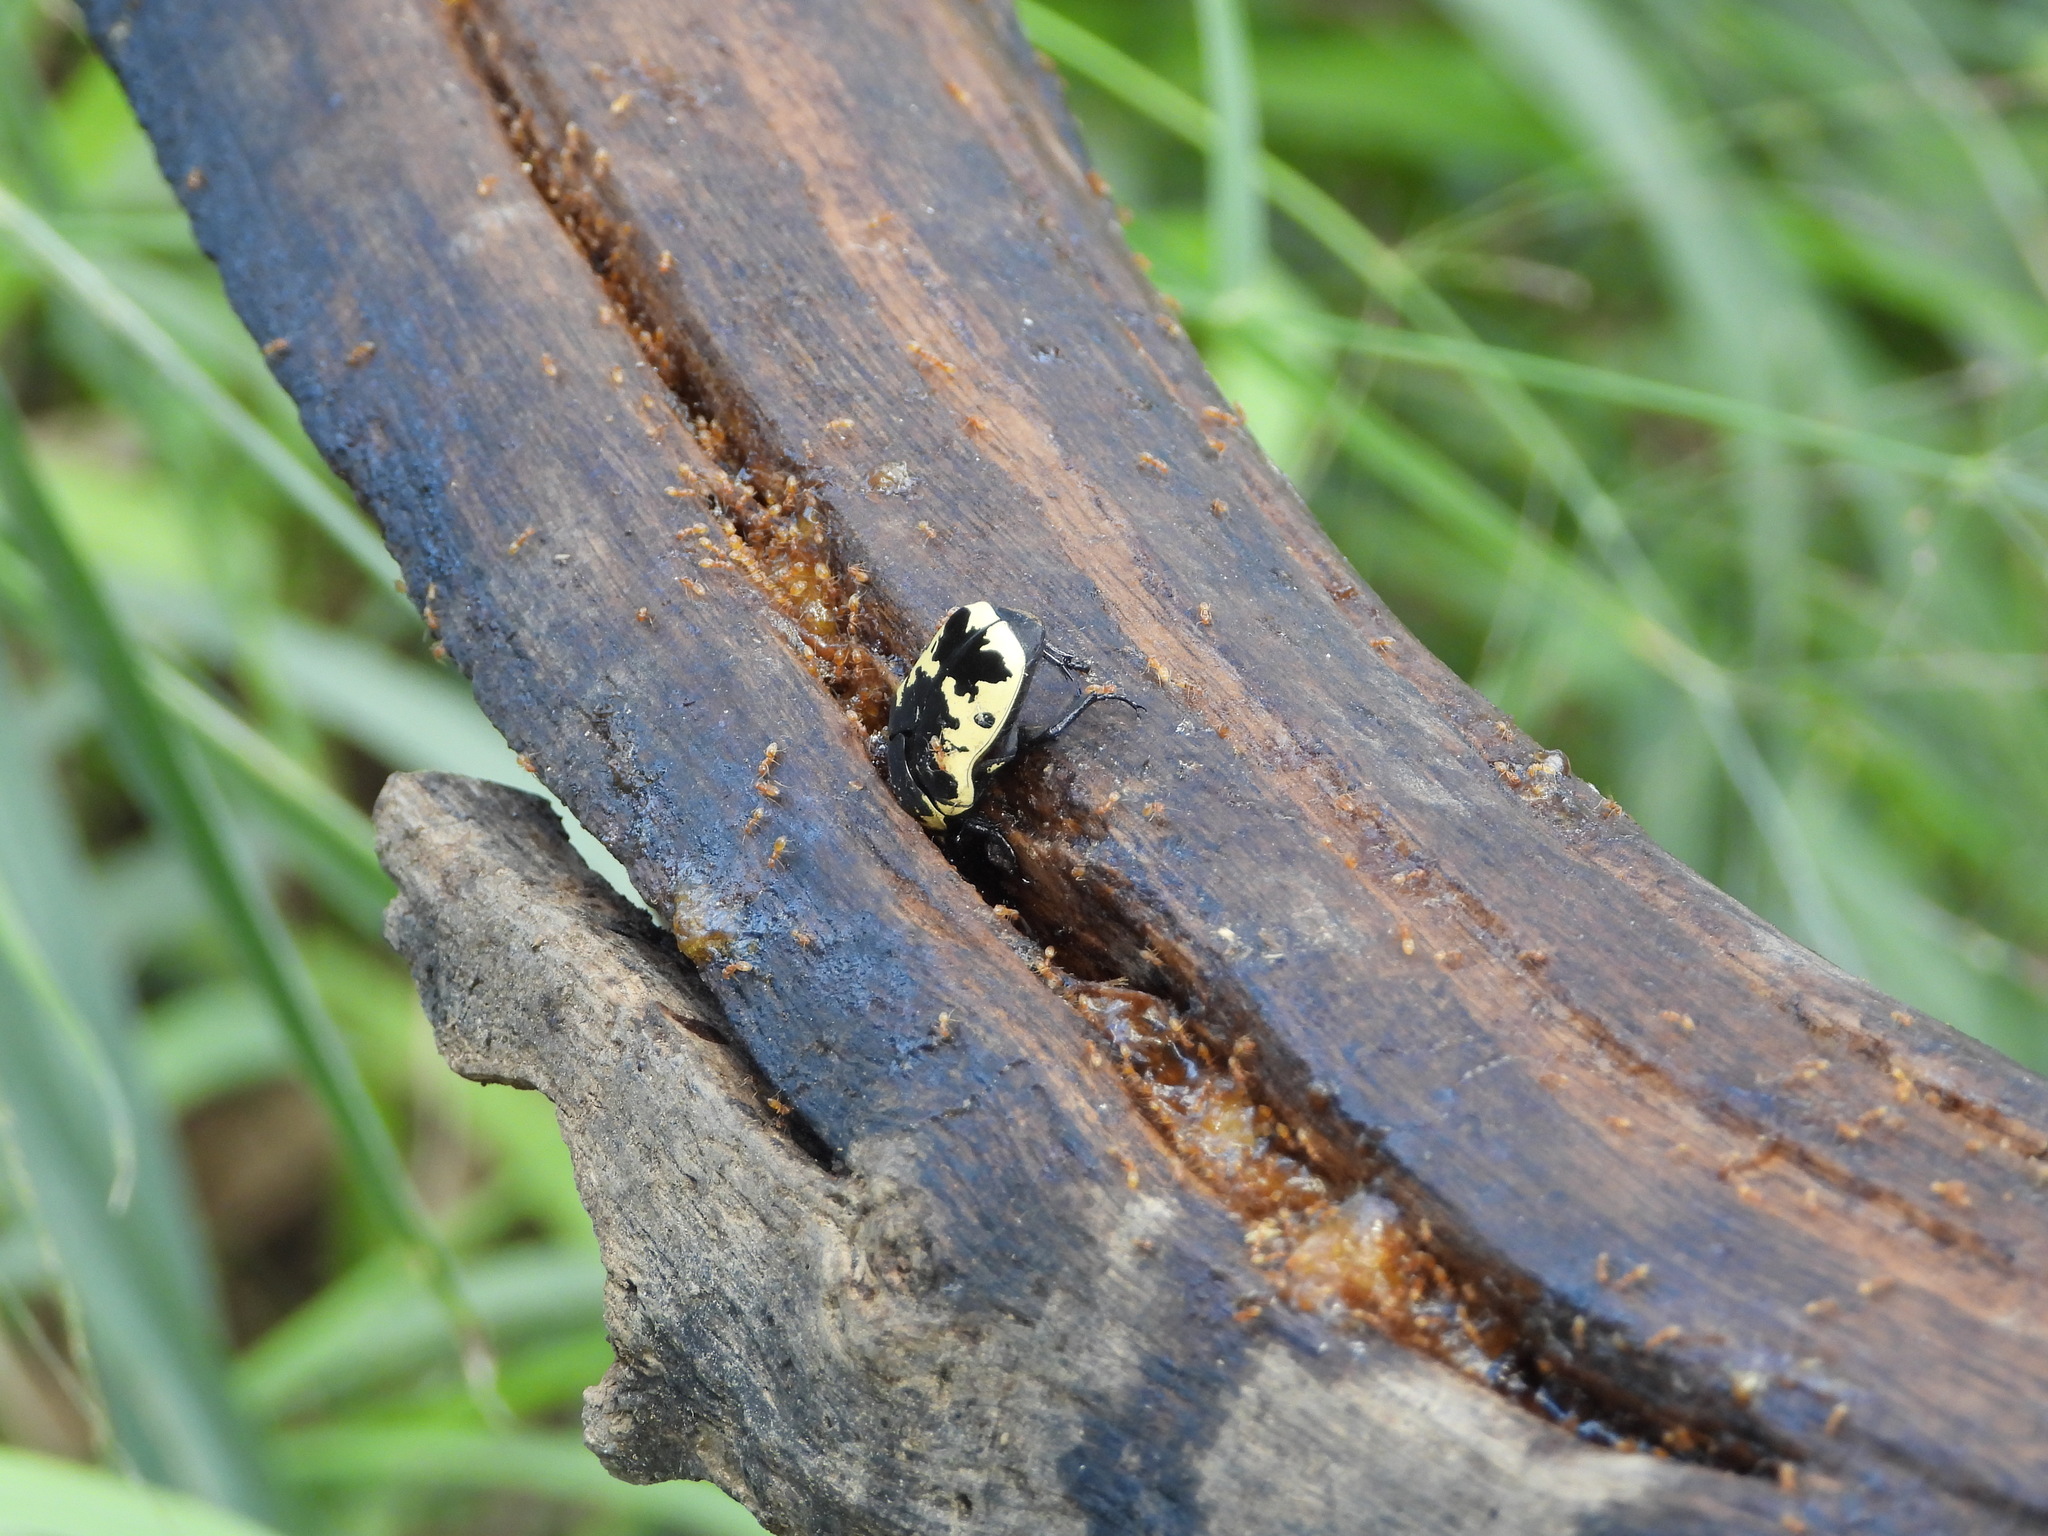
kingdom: Animalia
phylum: Arthropoda
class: Insecta
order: Coleoptera
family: Scarabaeidae
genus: Gymnetis
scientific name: Gymnetis thula
